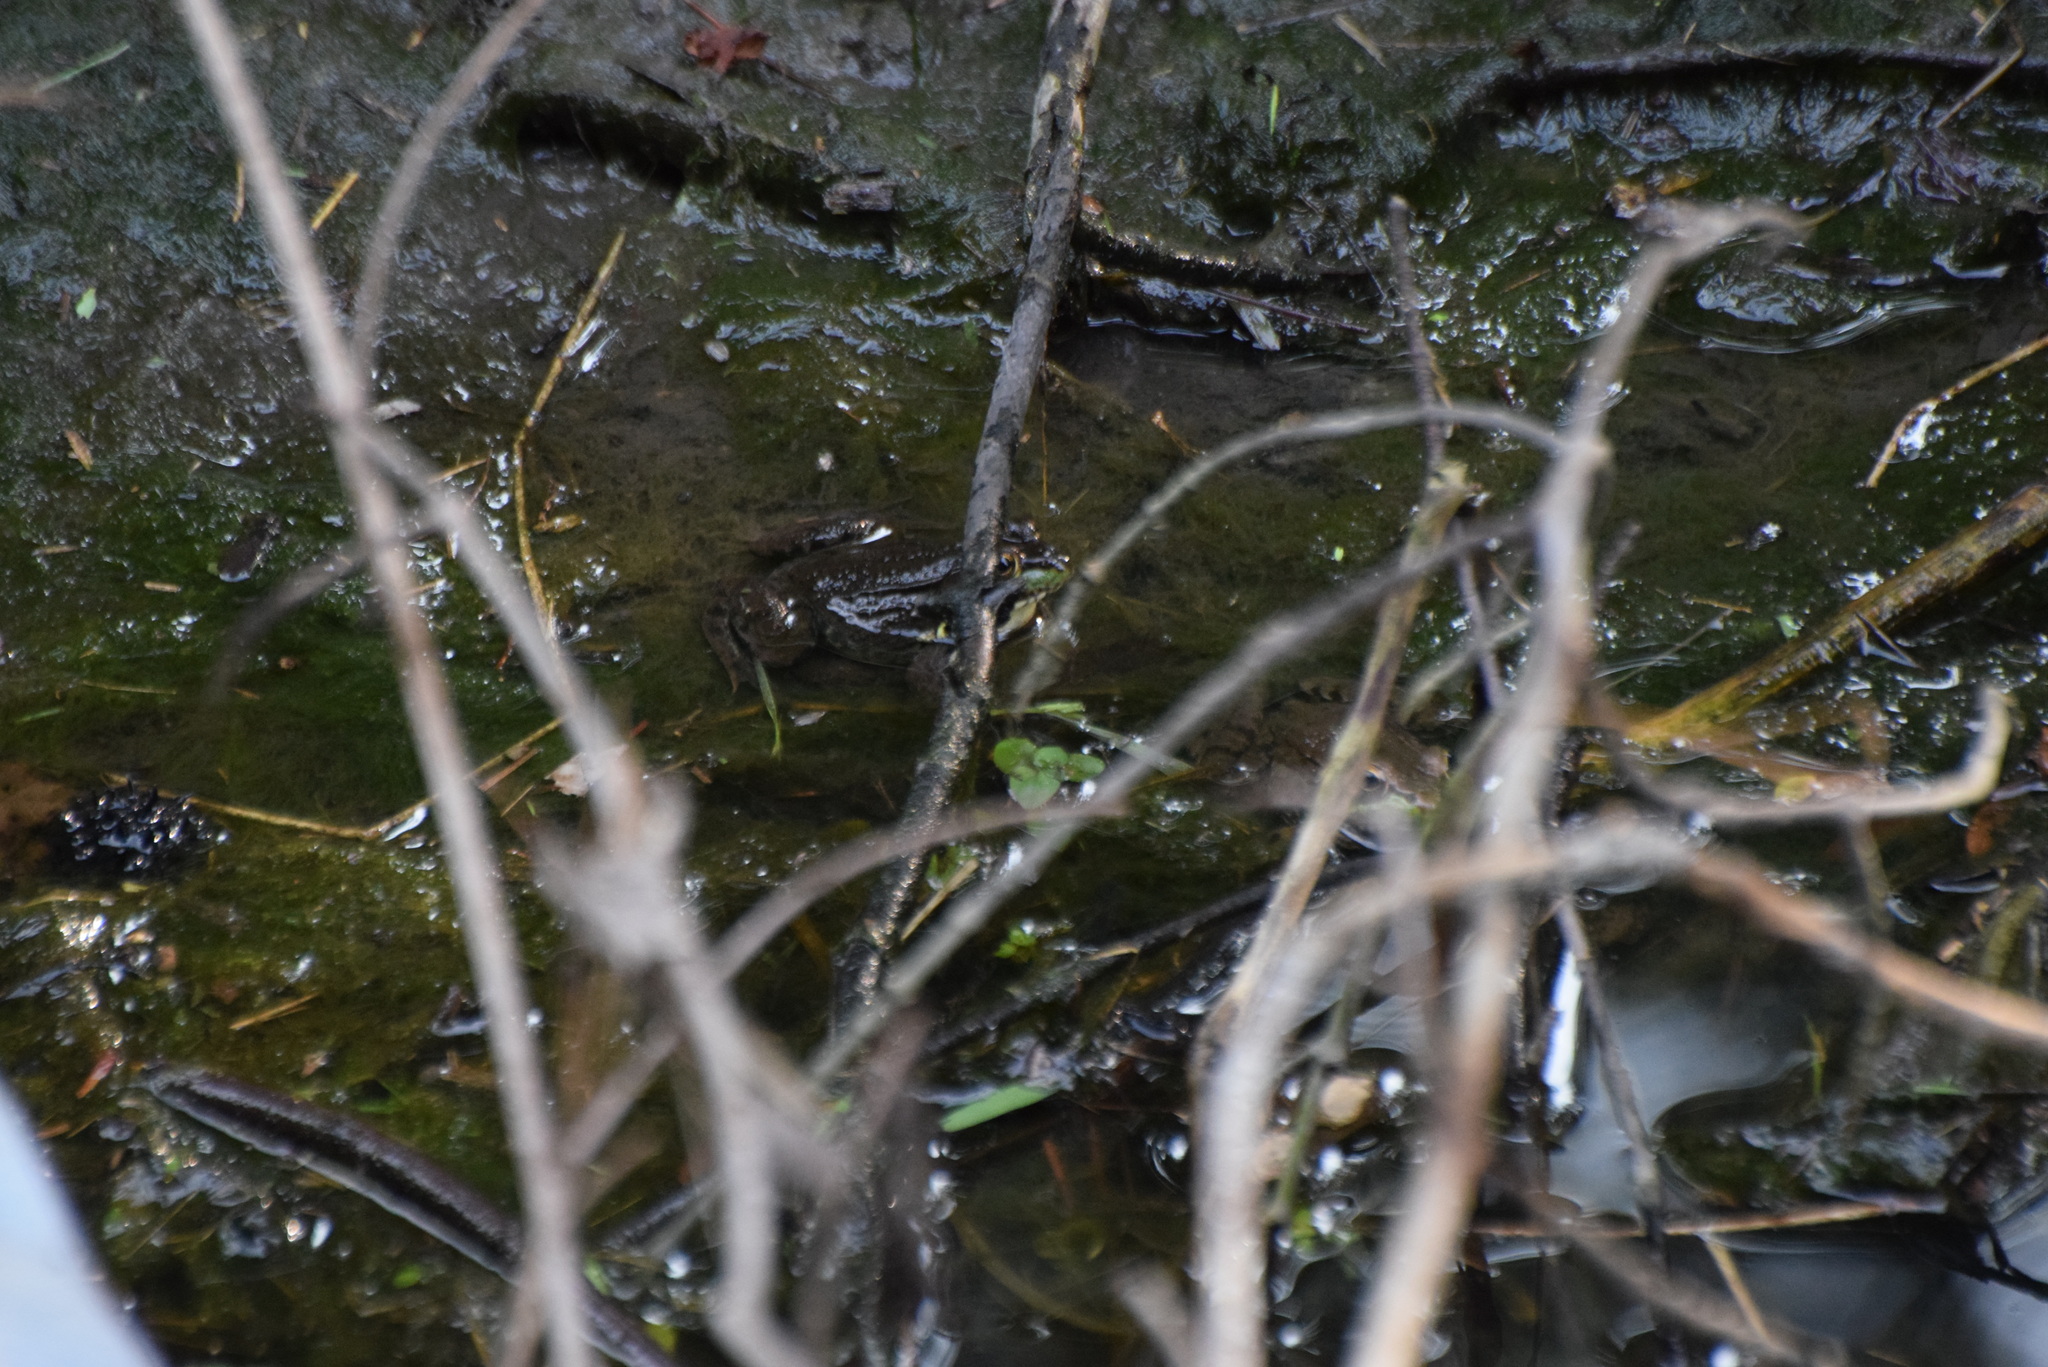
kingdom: Animalia
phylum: Chordata
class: Amphibia
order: Anura
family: Ranidae
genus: Lithobates
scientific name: Lithobates clamitans
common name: Green frog
